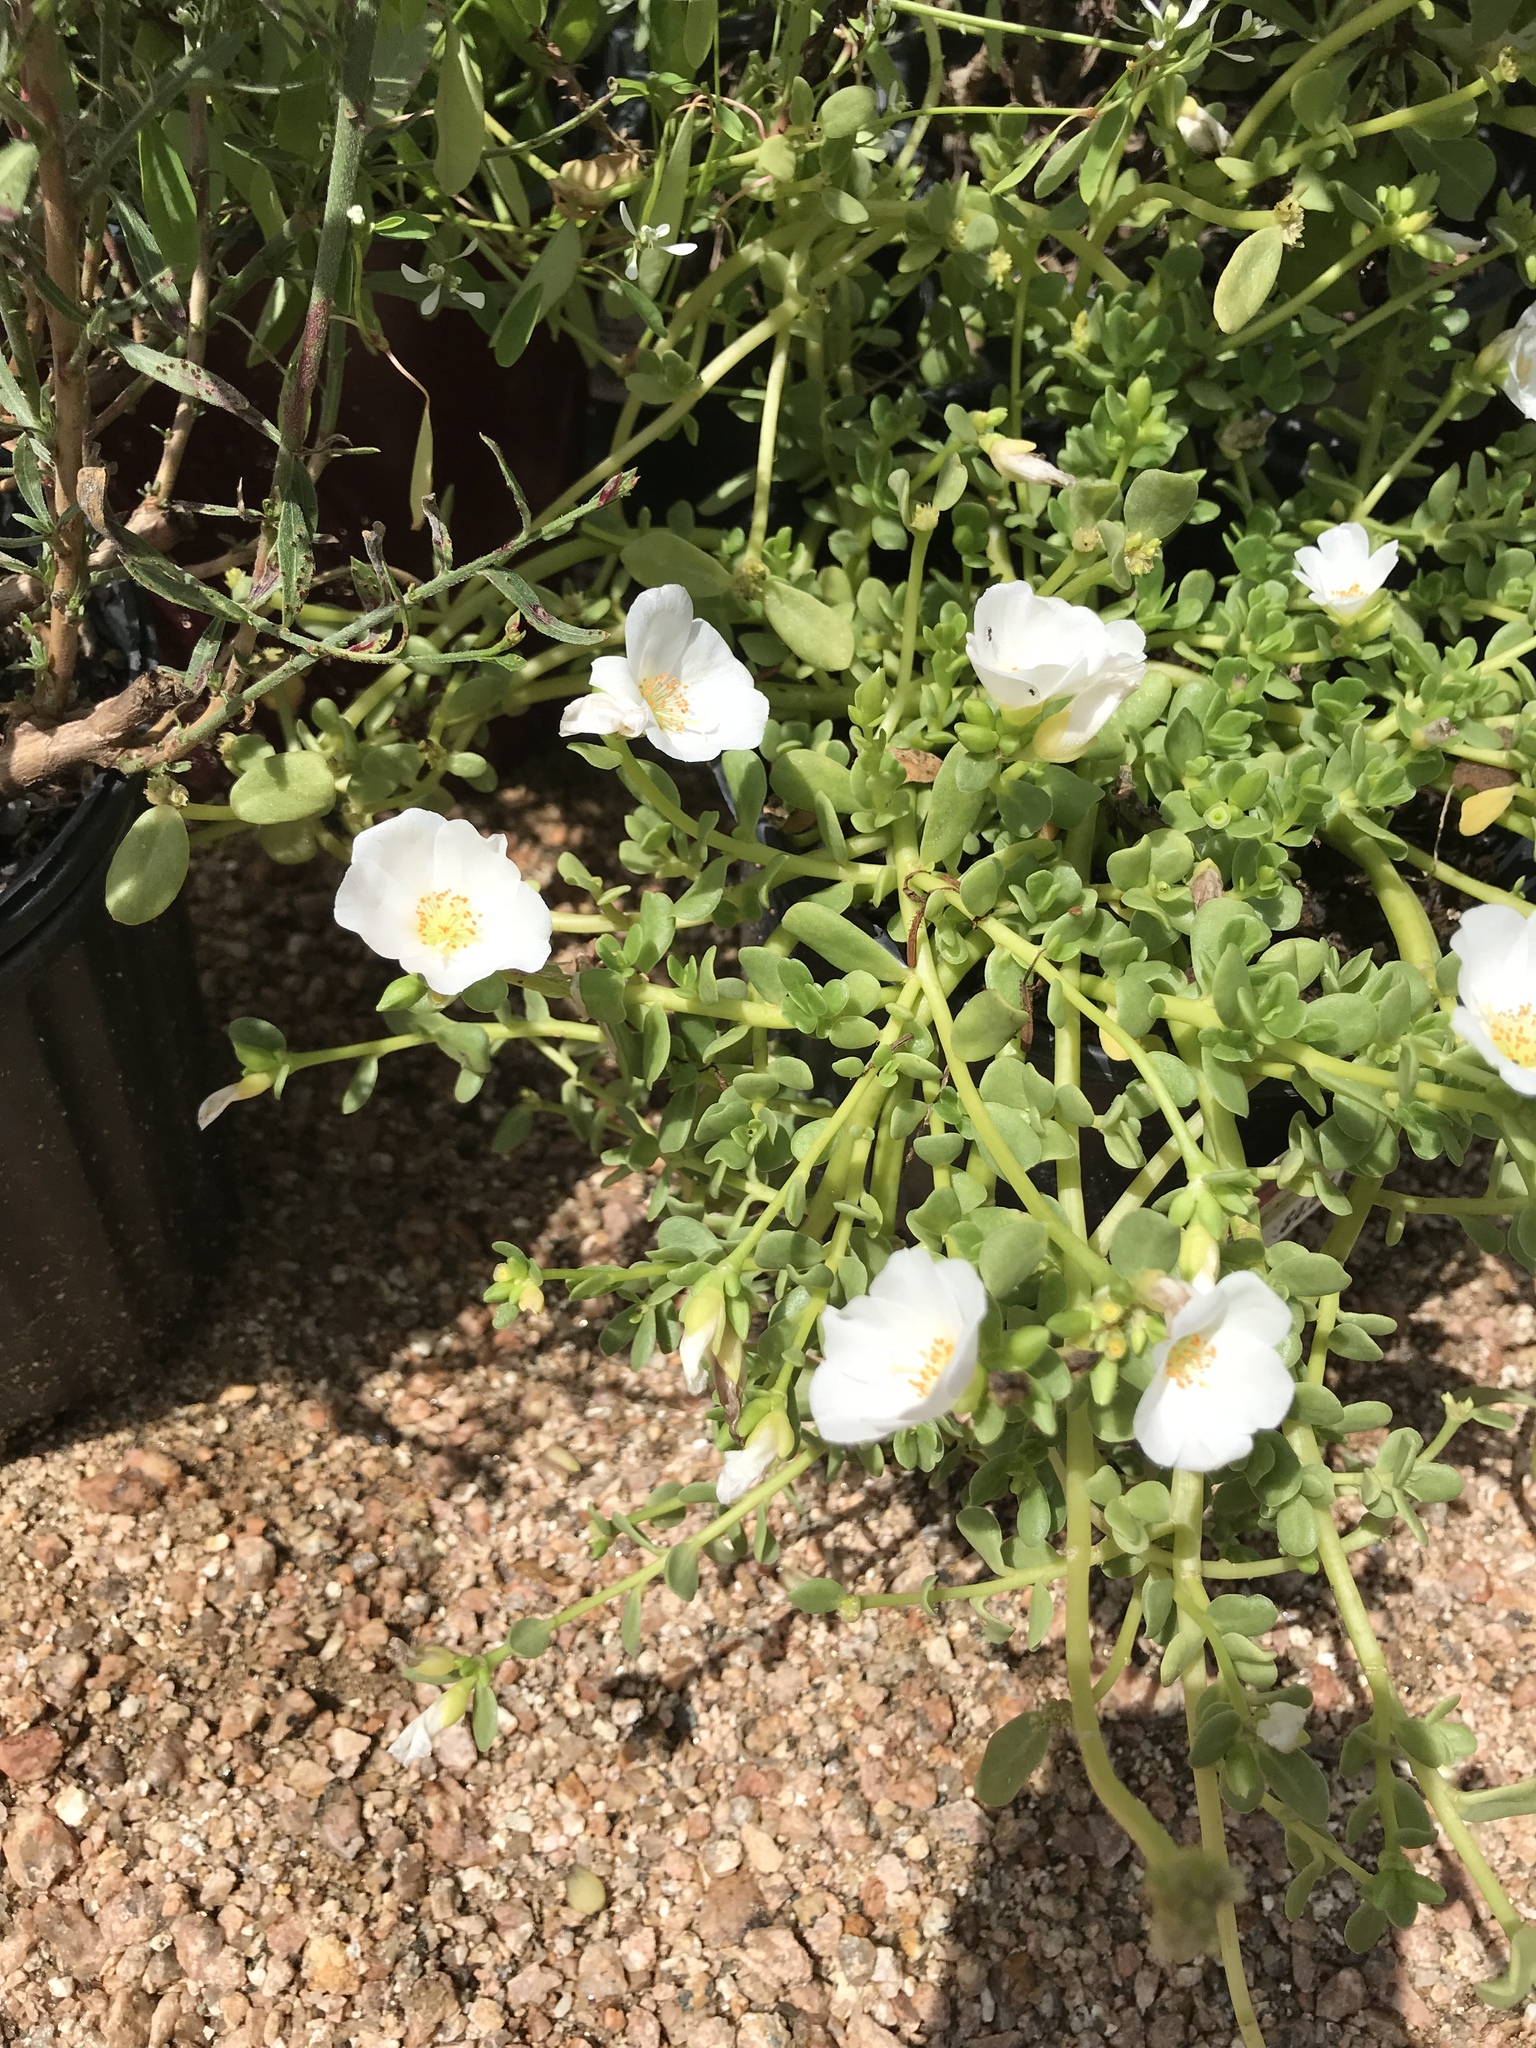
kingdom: Plantae
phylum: Tracheophyta
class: Magnoliopsida
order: Caryophyllales
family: Portulacaceae
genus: Portulaca
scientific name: Portulaca umbraticola
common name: Wingpod purslane
